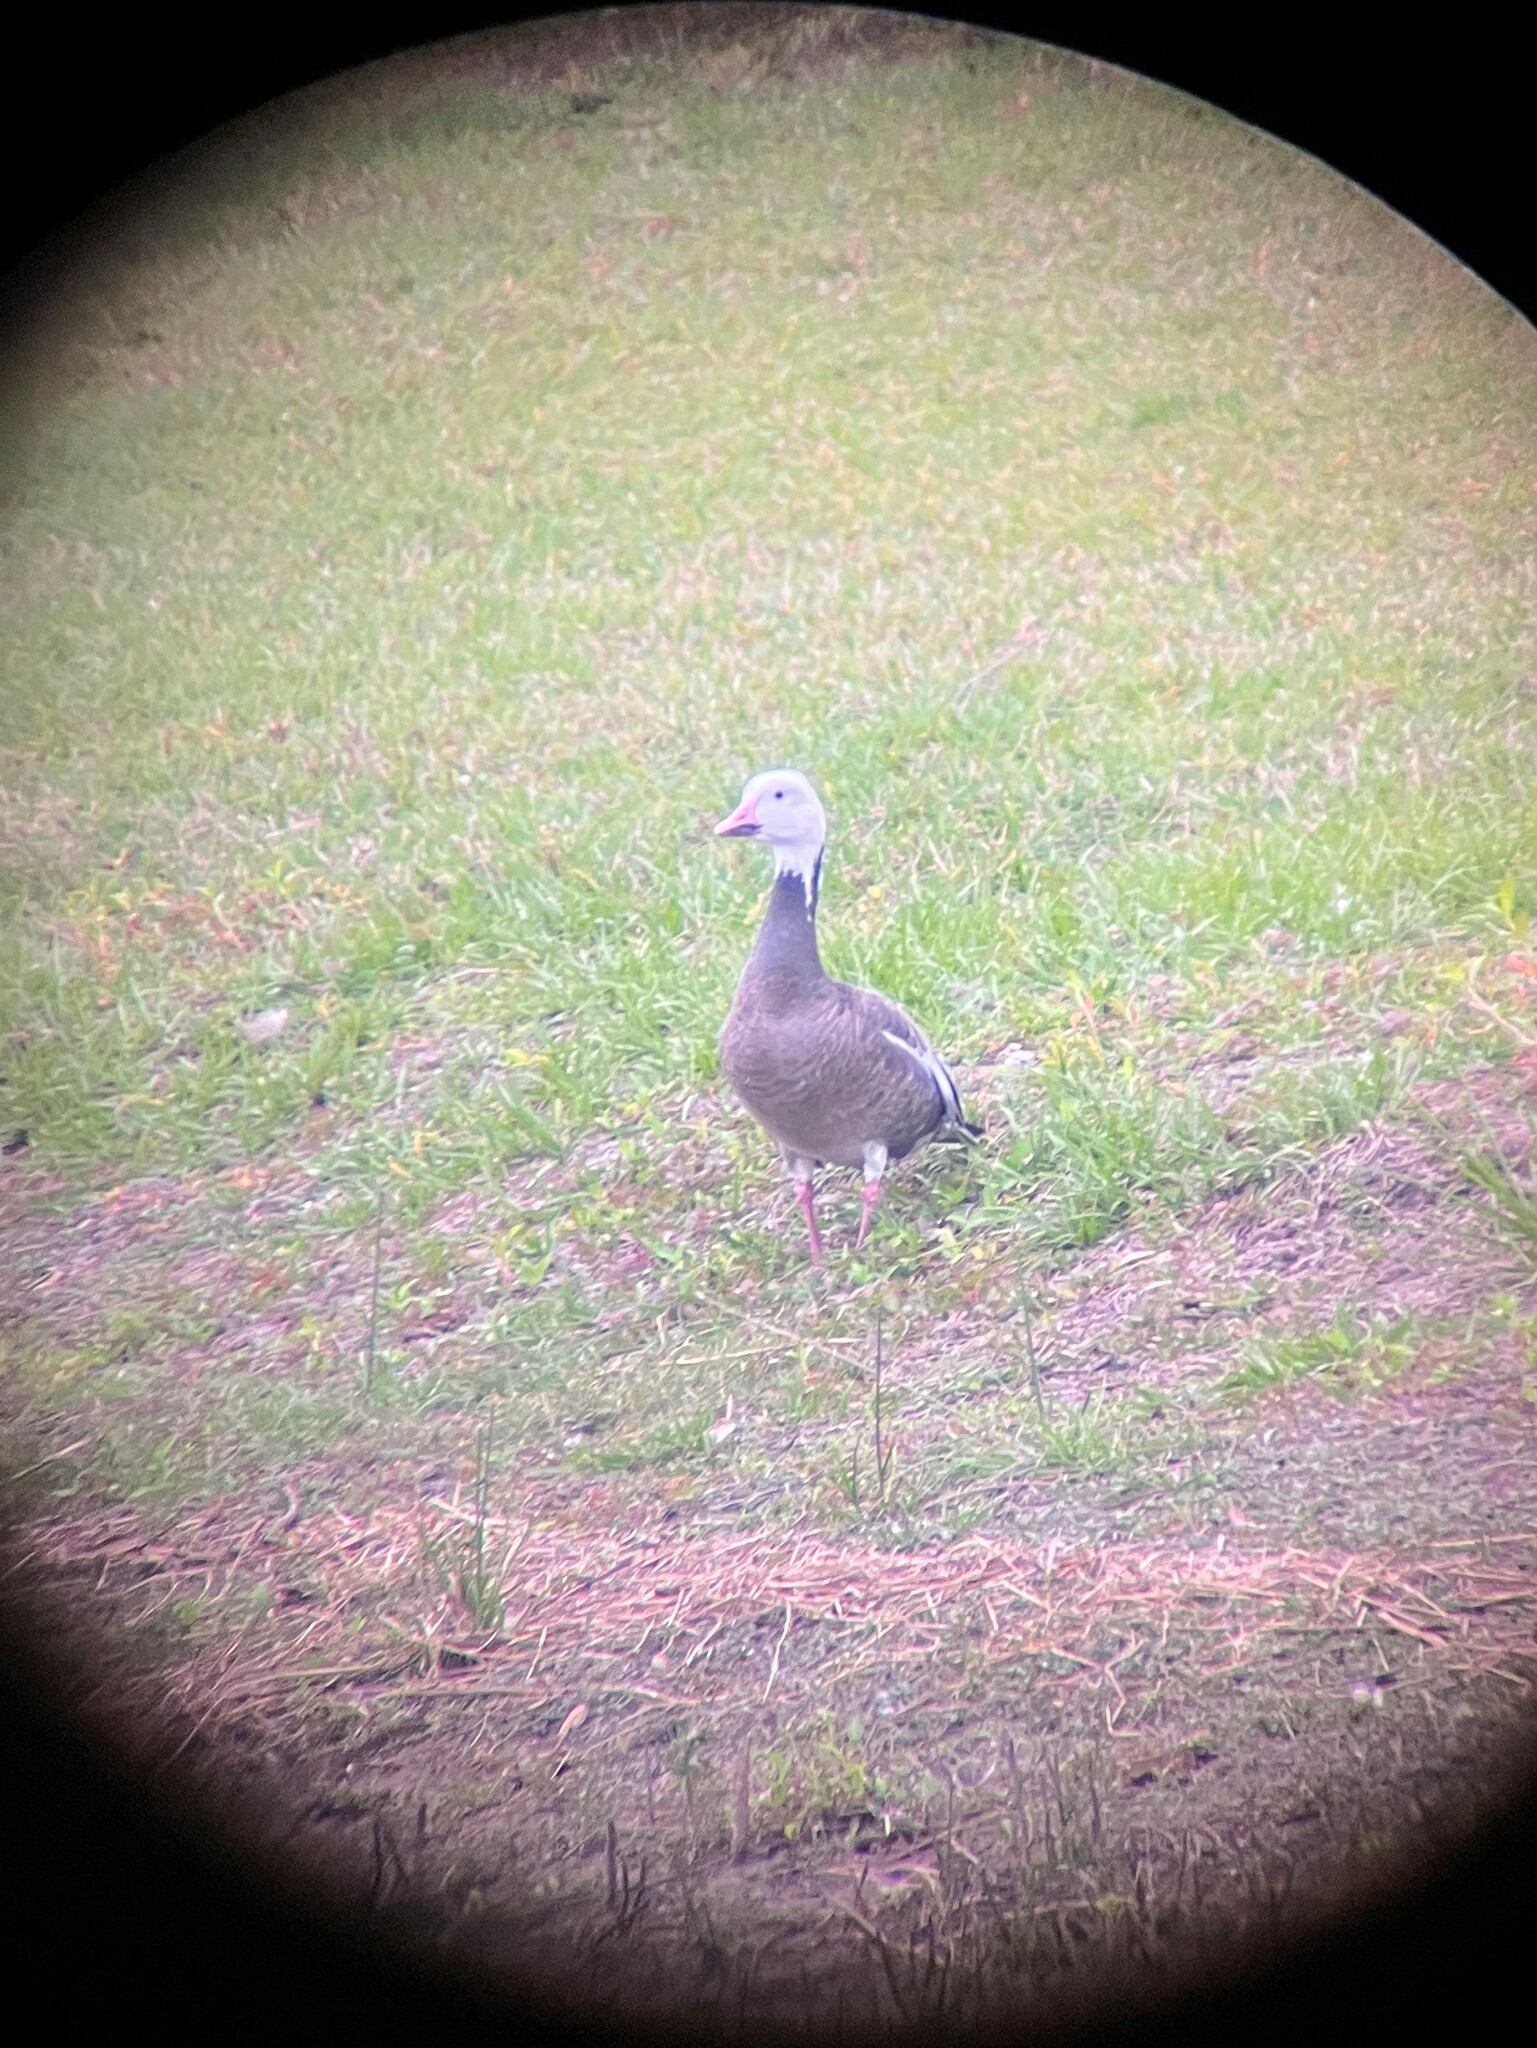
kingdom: Animalia
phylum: Chordata
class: Aves
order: Anseriformes
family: Anatidae
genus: Anser
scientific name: Anser caerulescens
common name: Snow goose
